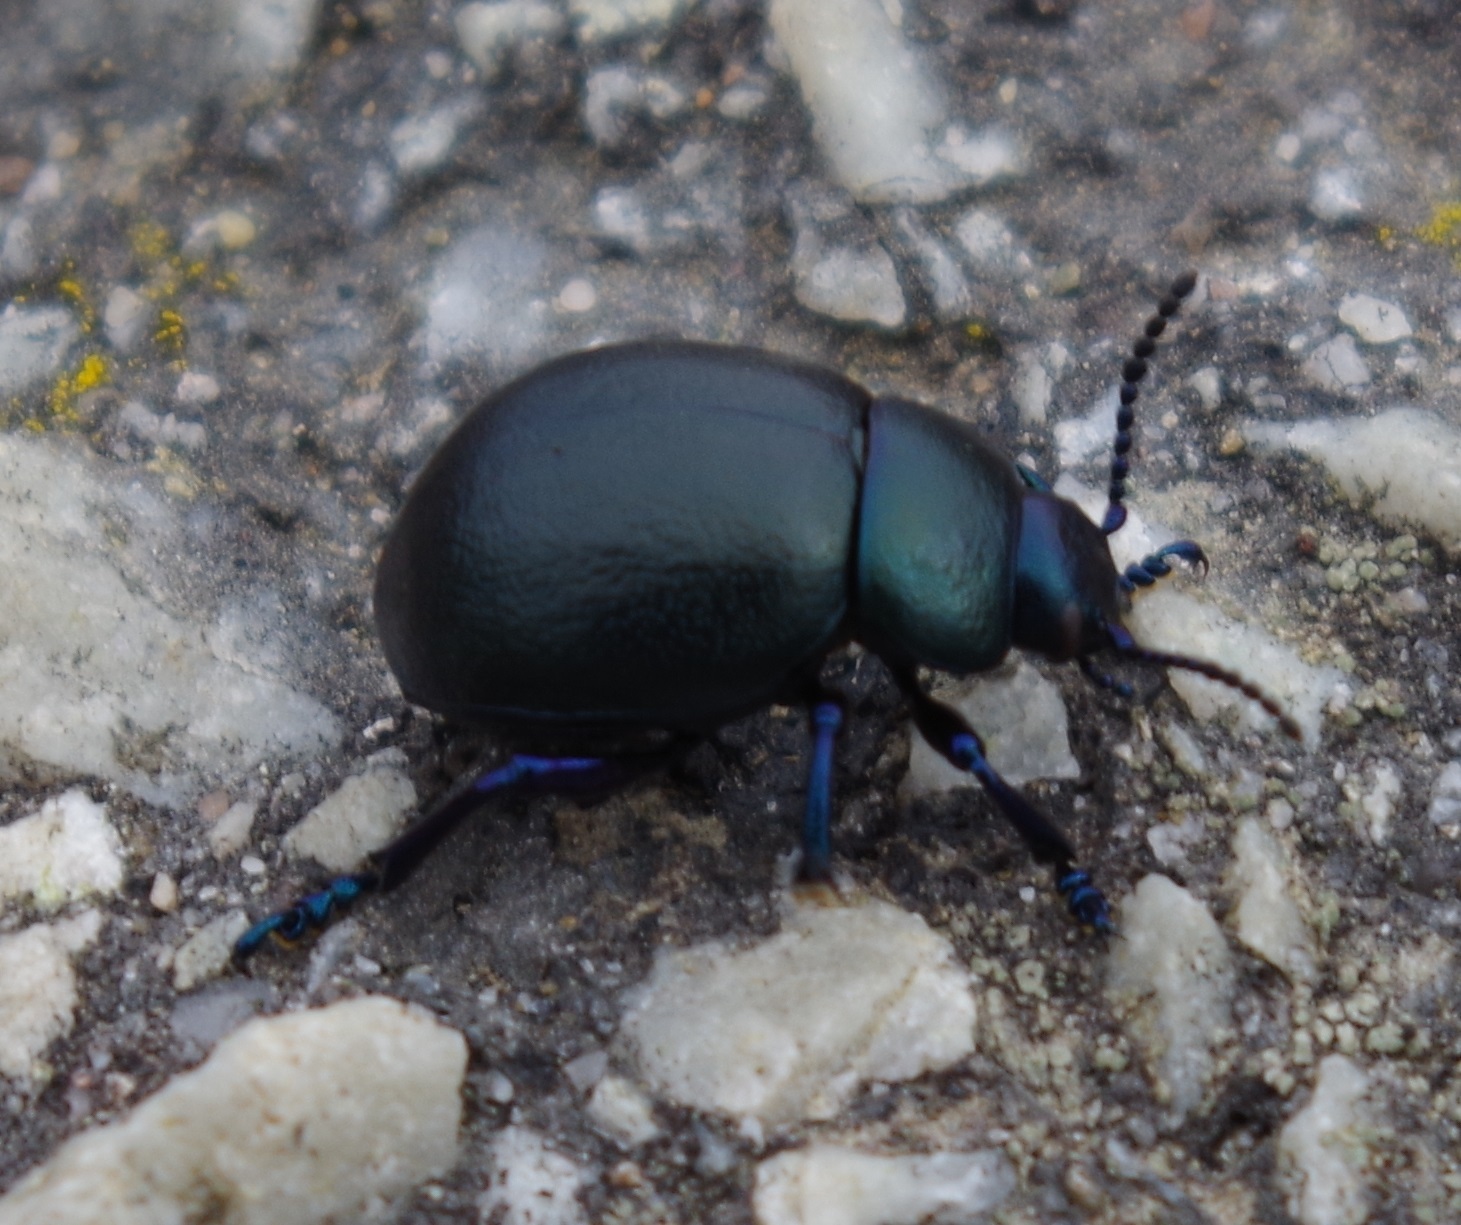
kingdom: Animalia
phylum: Arthropoda
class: Insecta
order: Coleoptera
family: Chrysomelidae
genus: Timarcha
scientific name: Timarcha goettingensis
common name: Small bloody-nosed beetle
